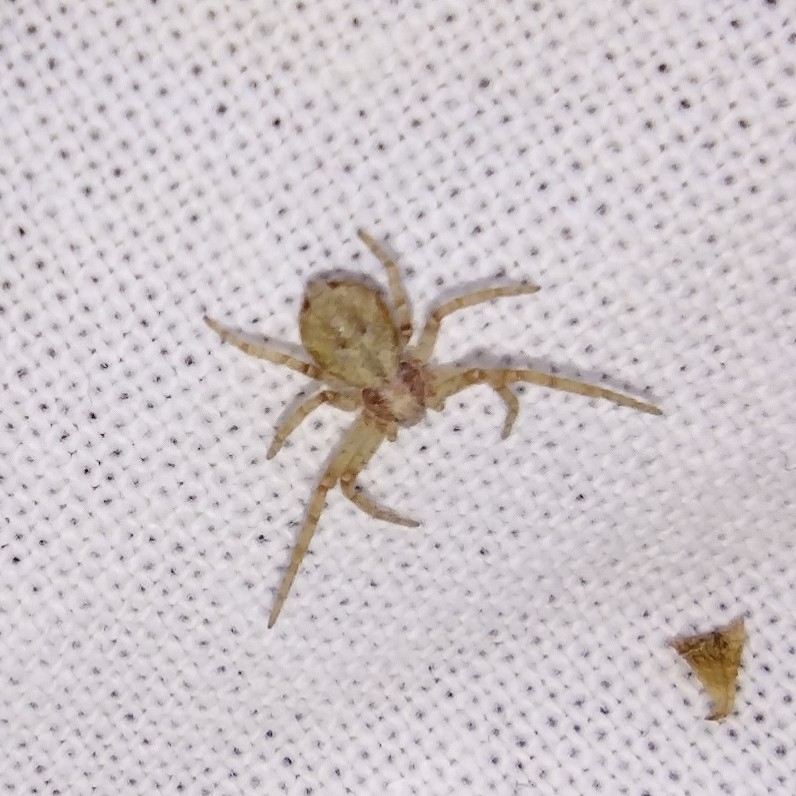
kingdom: Animalia
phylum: Arthropoda
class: Arachnida
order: Araneae
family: Philodromidae
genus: Philodromus
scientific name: Philodromus
